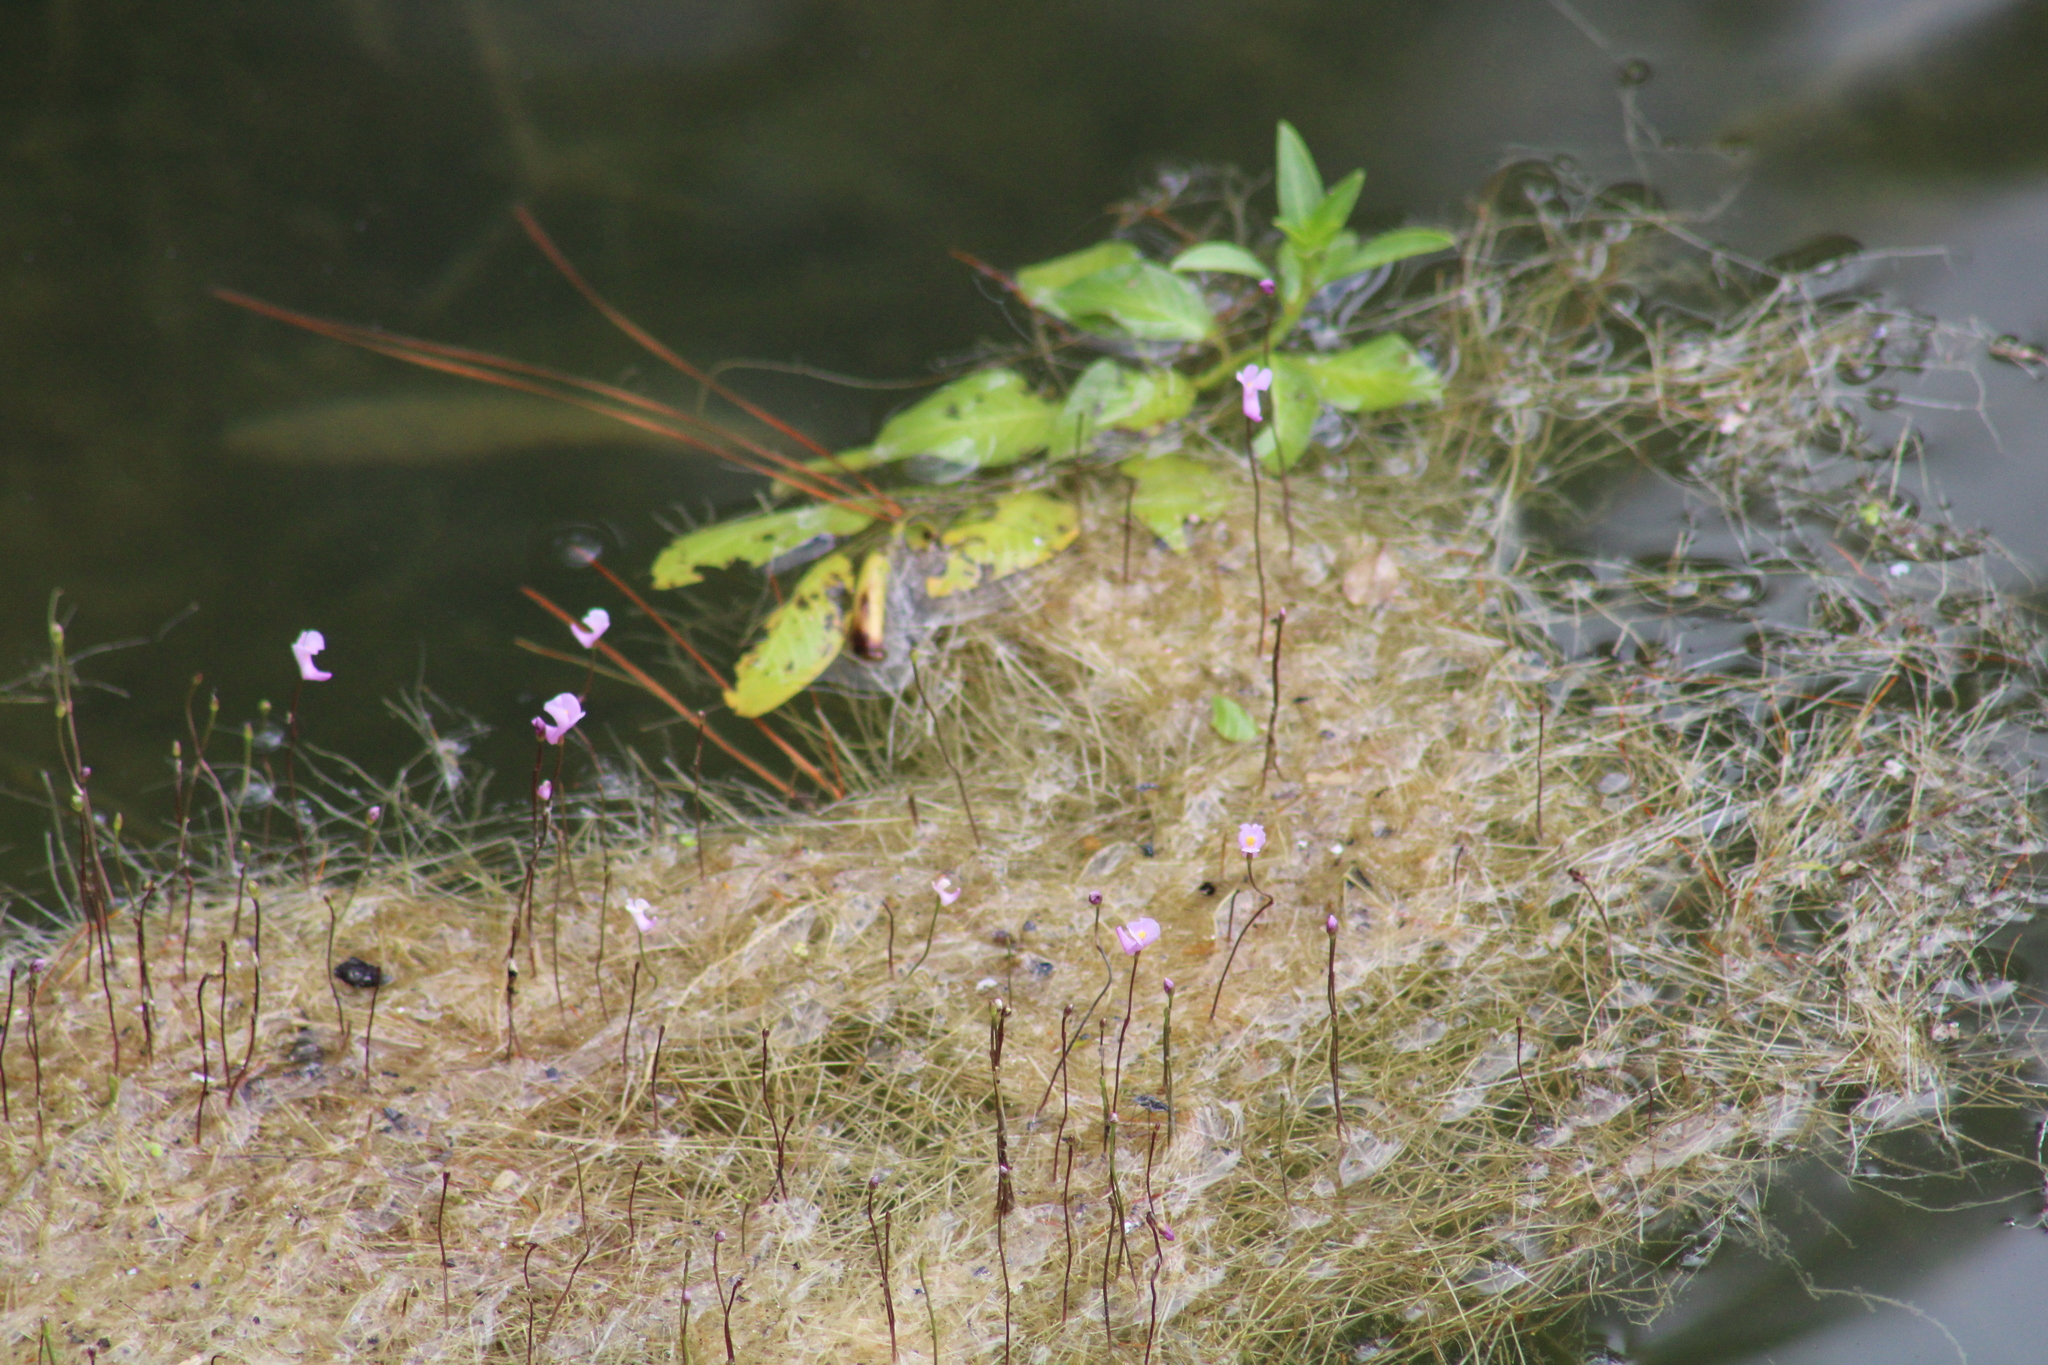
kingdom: Plantae
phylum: Tracheophyta
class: Magnoliopsida
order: Lamiales
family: Lentibulariaceae
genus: Utricularia
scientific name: Utricularia resupinata
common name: Northeastern bladderwort
